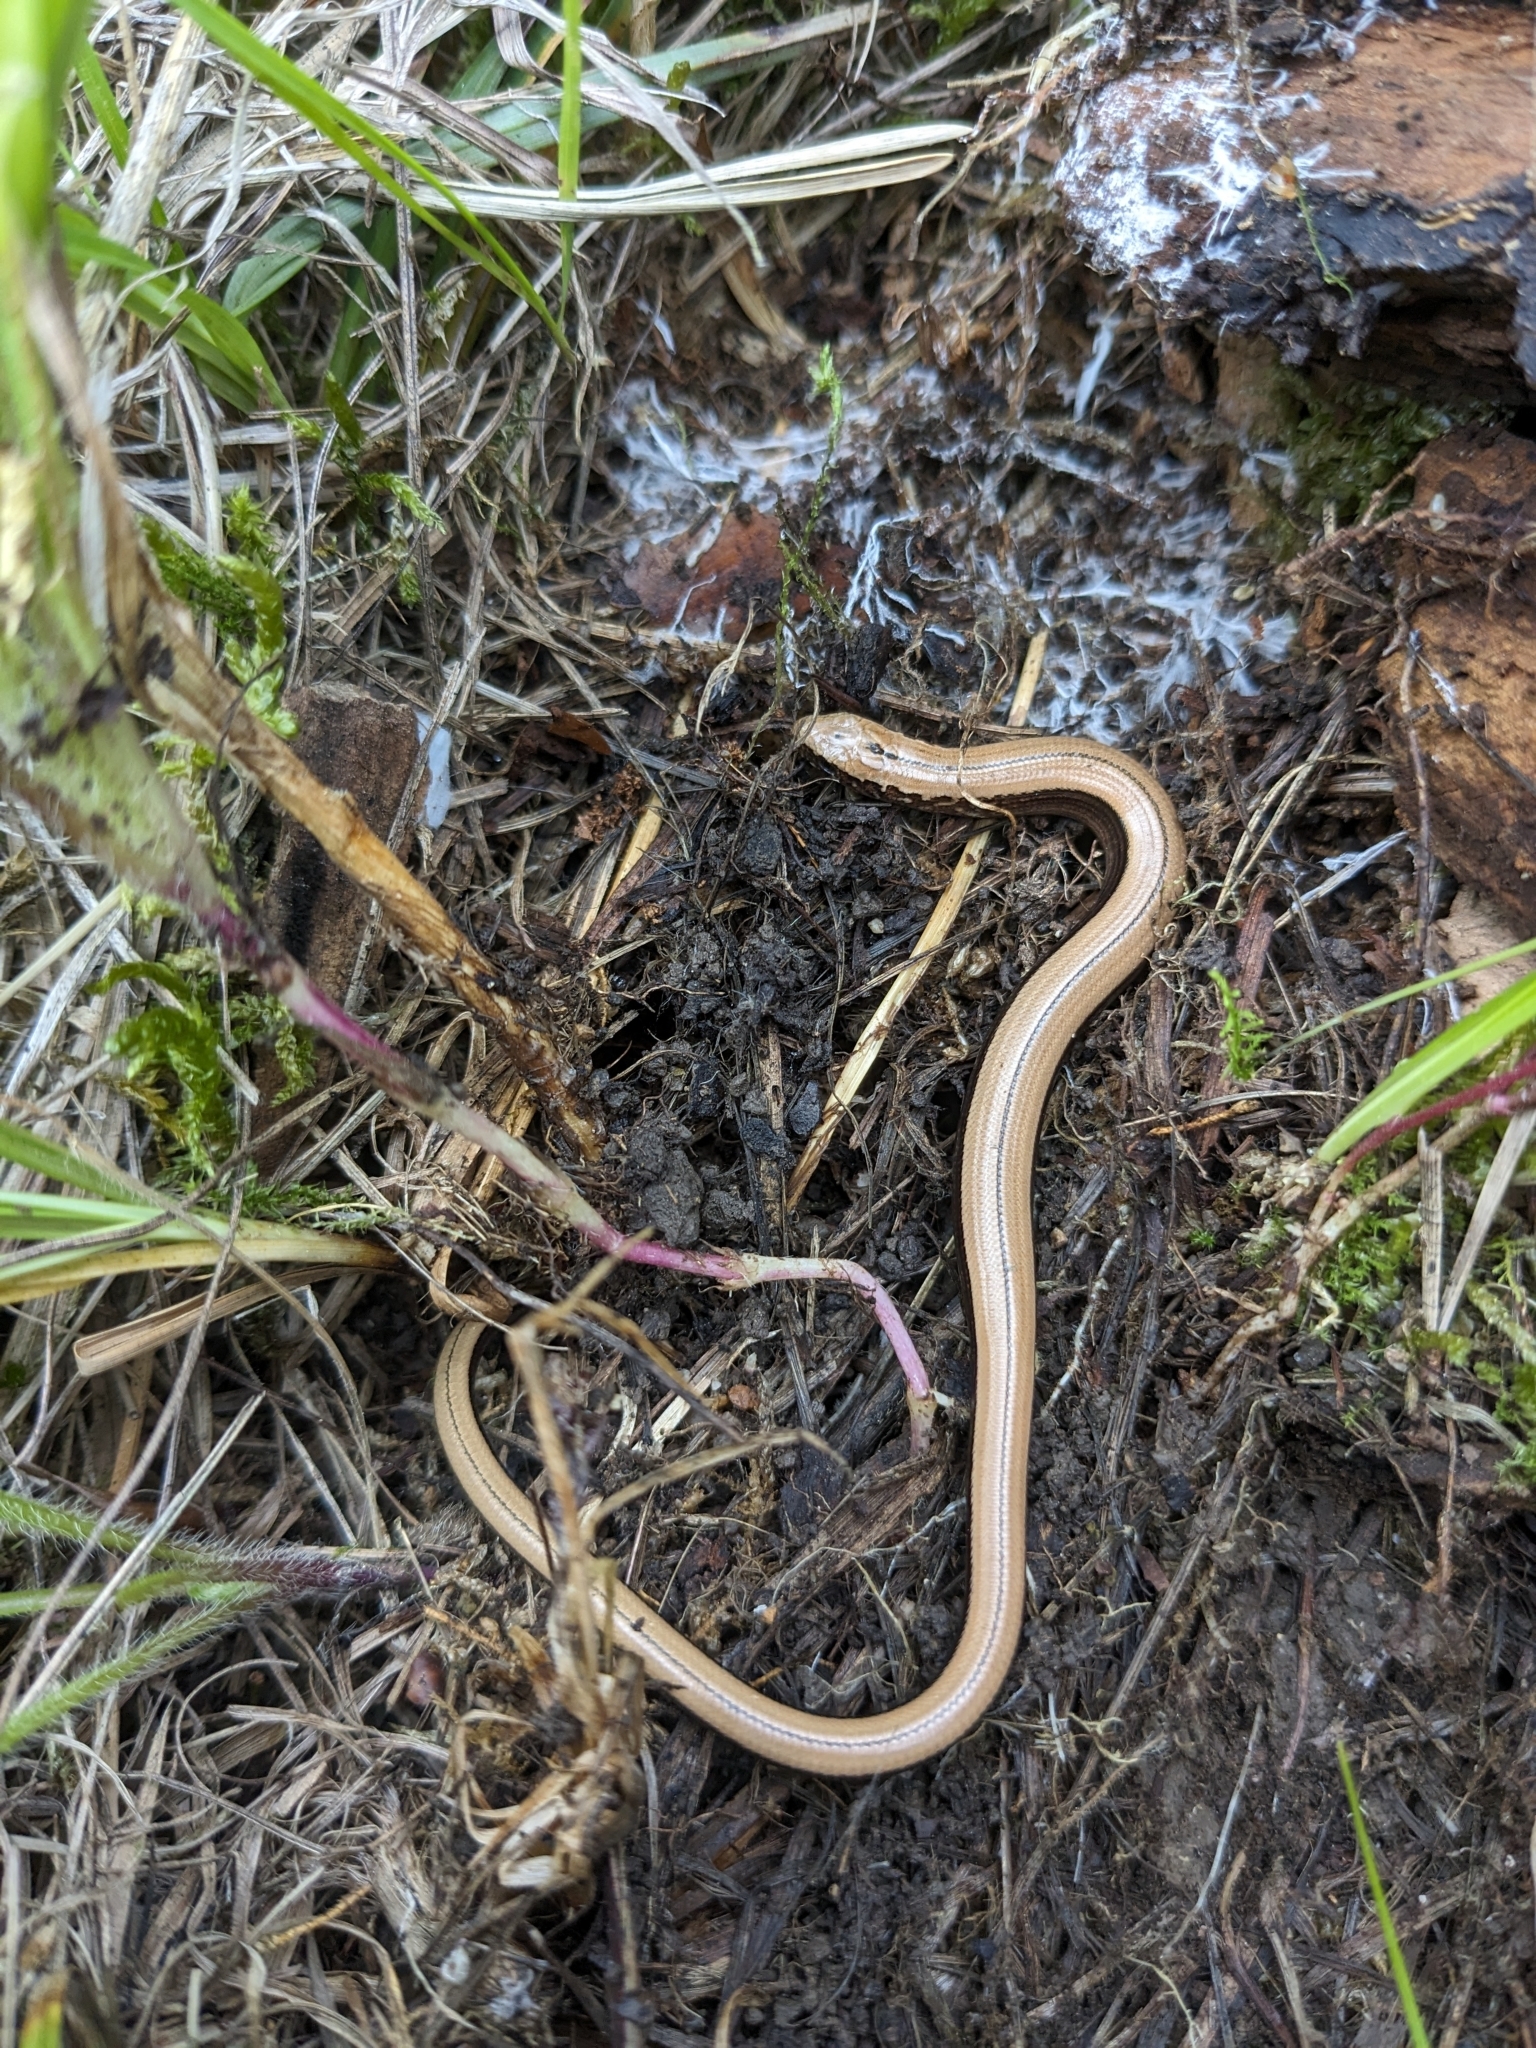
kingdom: Animalia
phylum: Chordata
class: Squamata
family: Anguidae
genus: Anguis
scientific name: Anguis fragilis
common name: Slow worm
